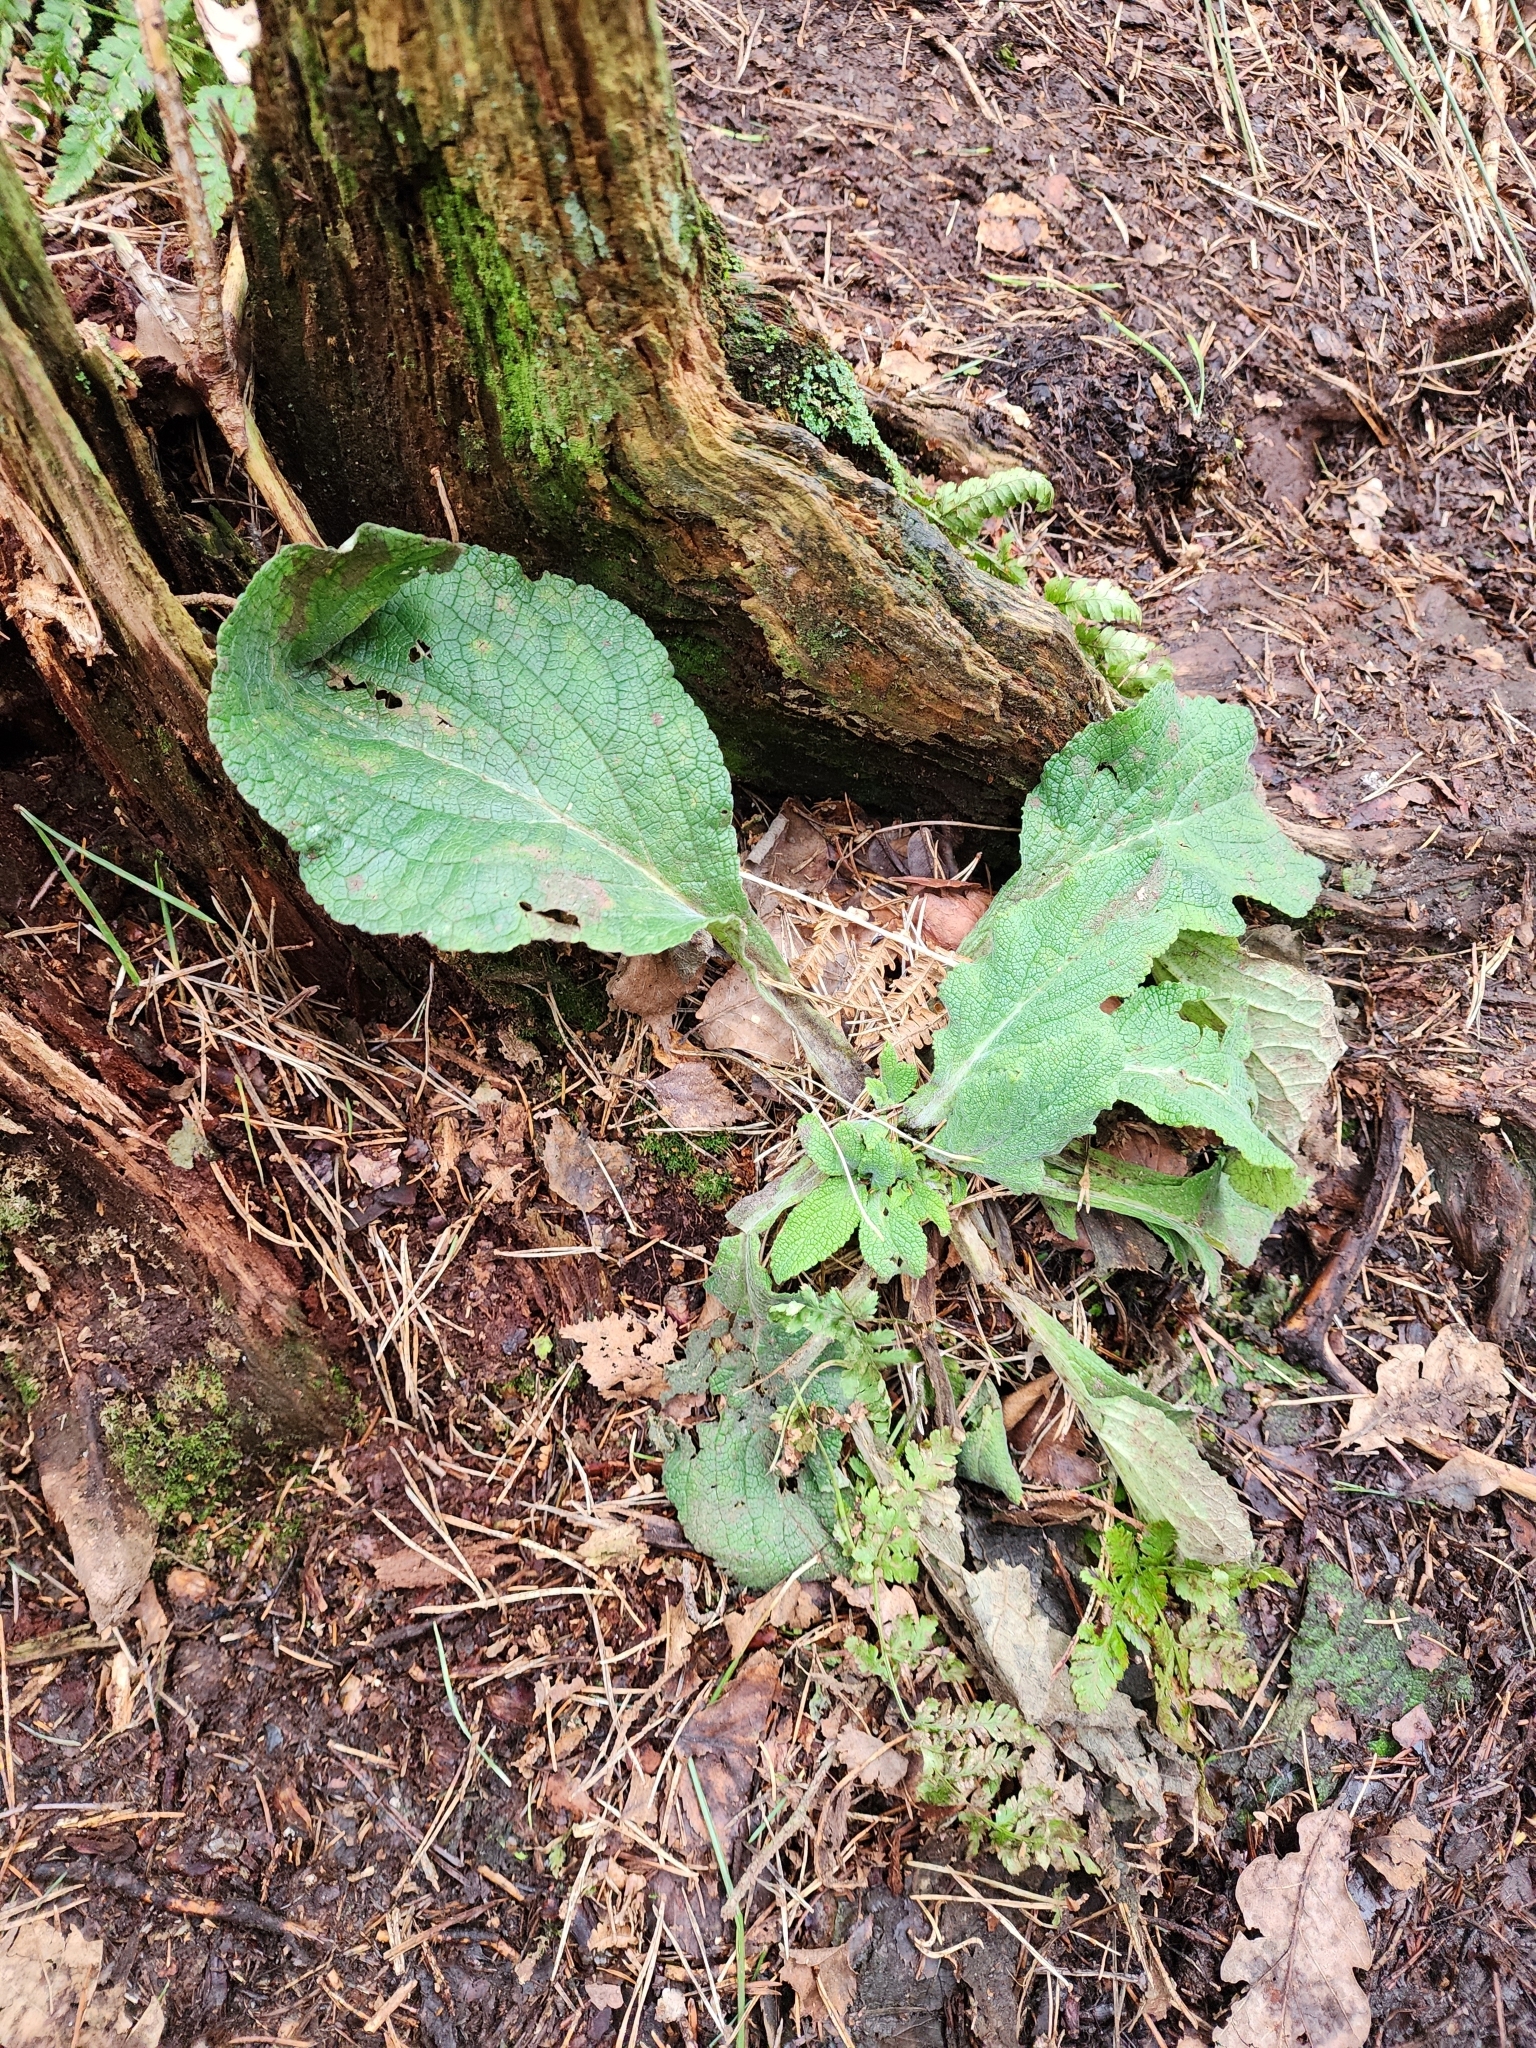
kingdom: Plantae
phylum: Tracheophyta
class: Magnoliopsida
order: Lamiales
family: Plantaginaceae
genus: Digitalis
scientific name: Digitalis purpurea
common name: Foxglove
